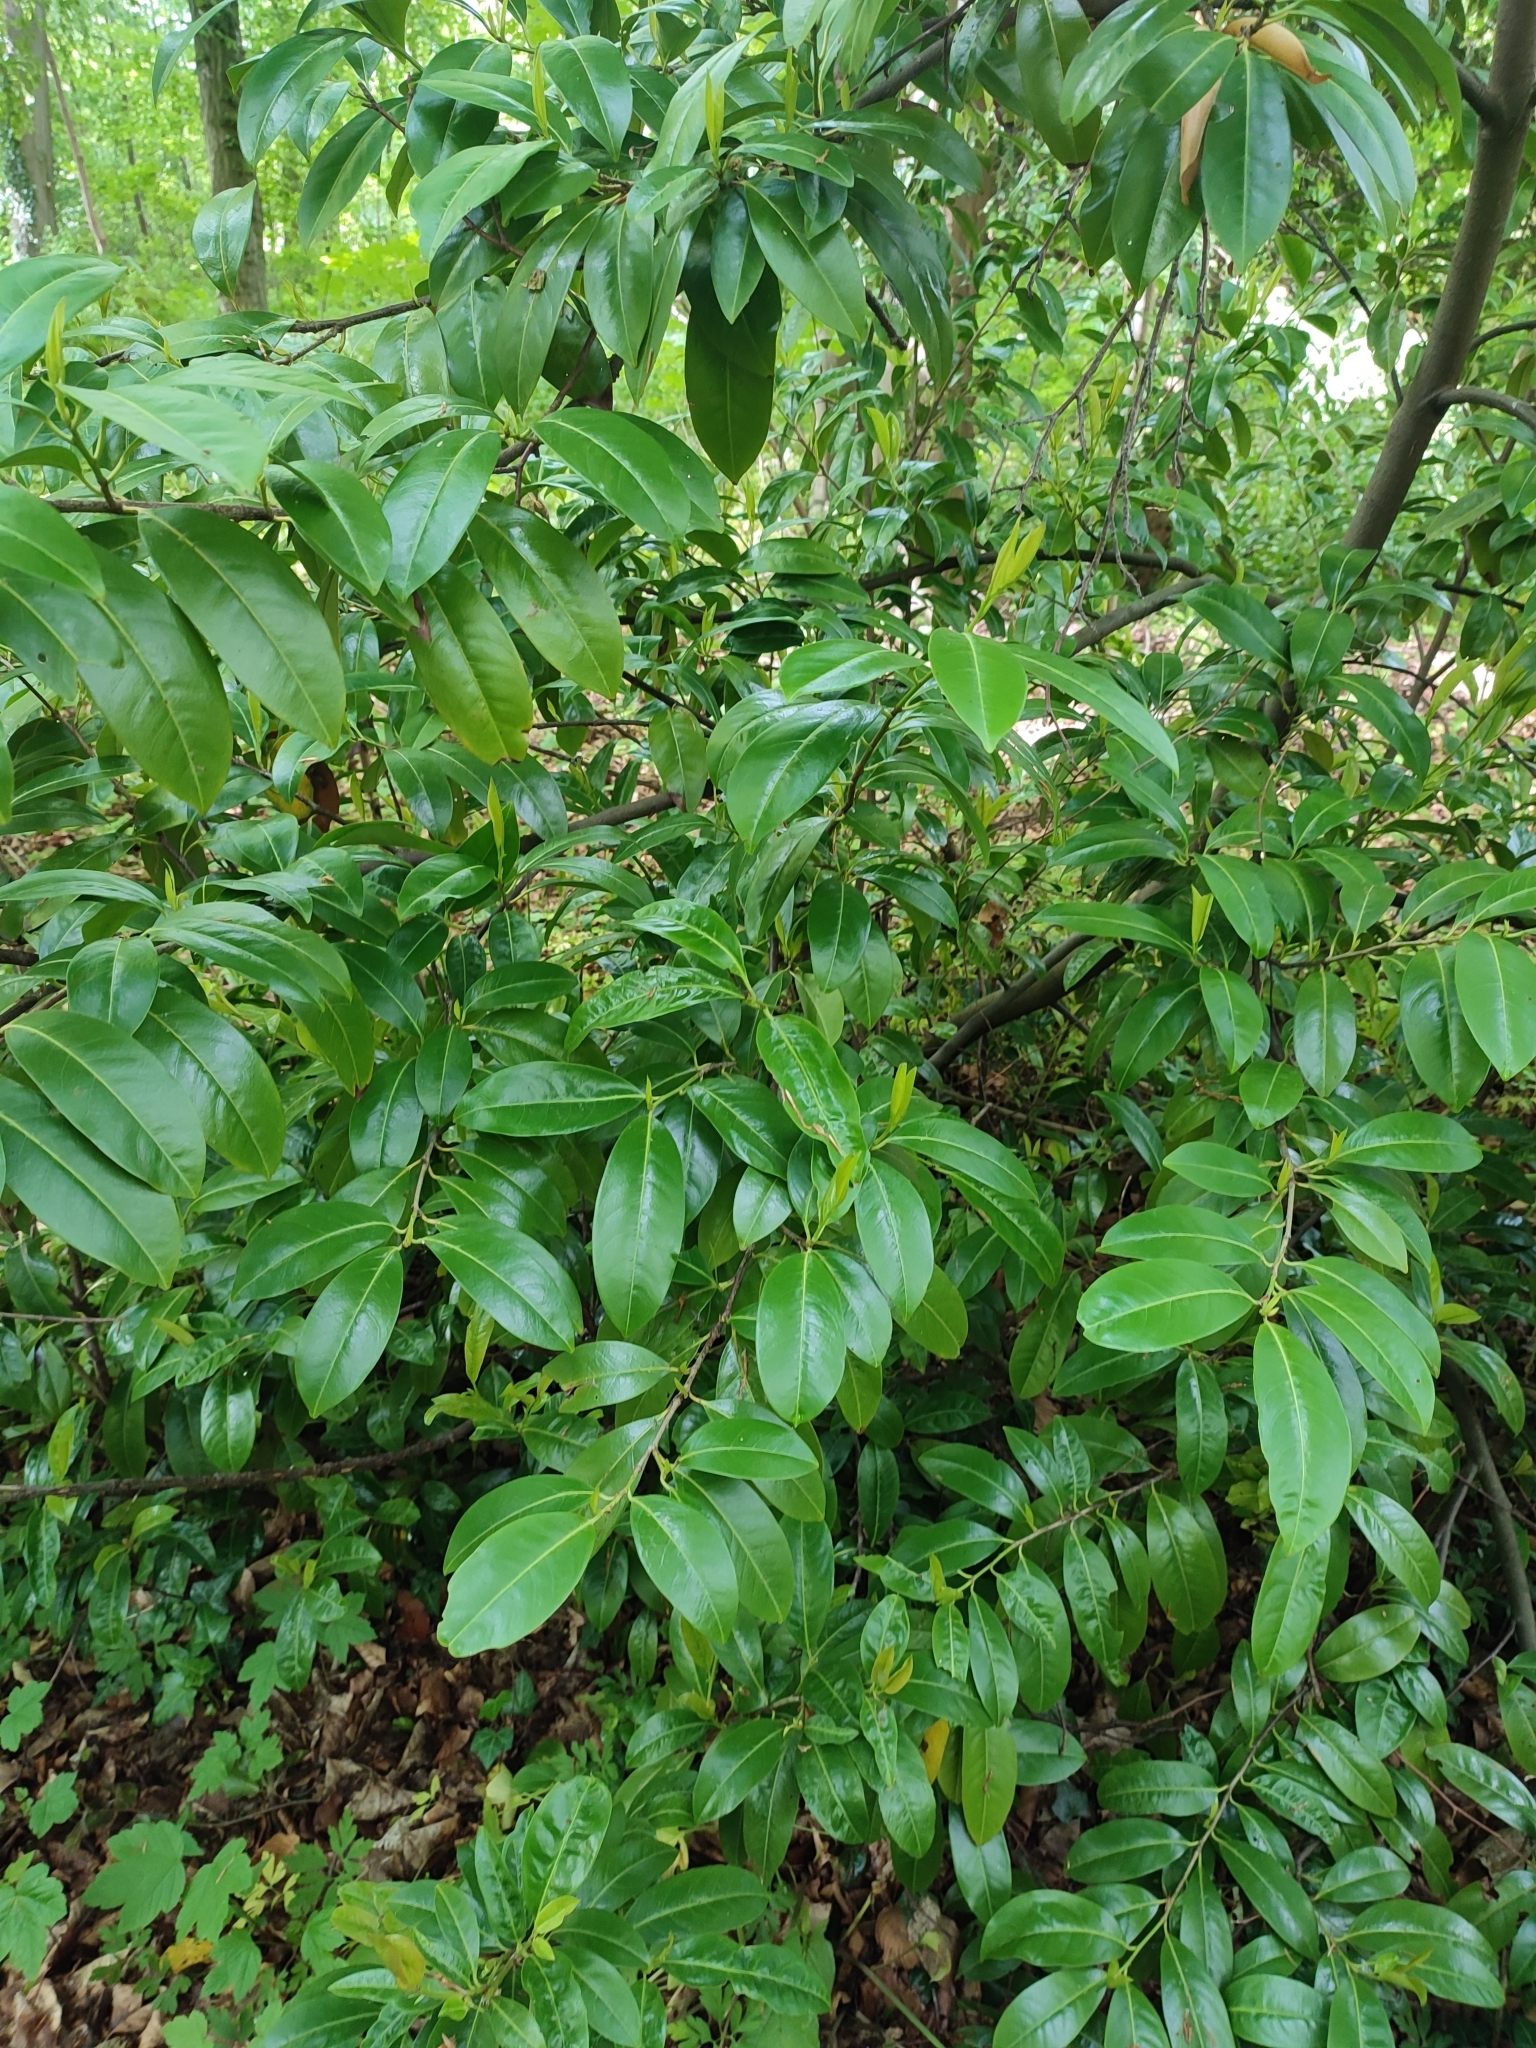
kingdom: Plantae
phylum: Tracheophyta
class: Magnoliopsida
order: Rosales
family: Rosaceae
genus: Prunus
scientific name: Prunus laurocerasus
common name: Cherry laurel
